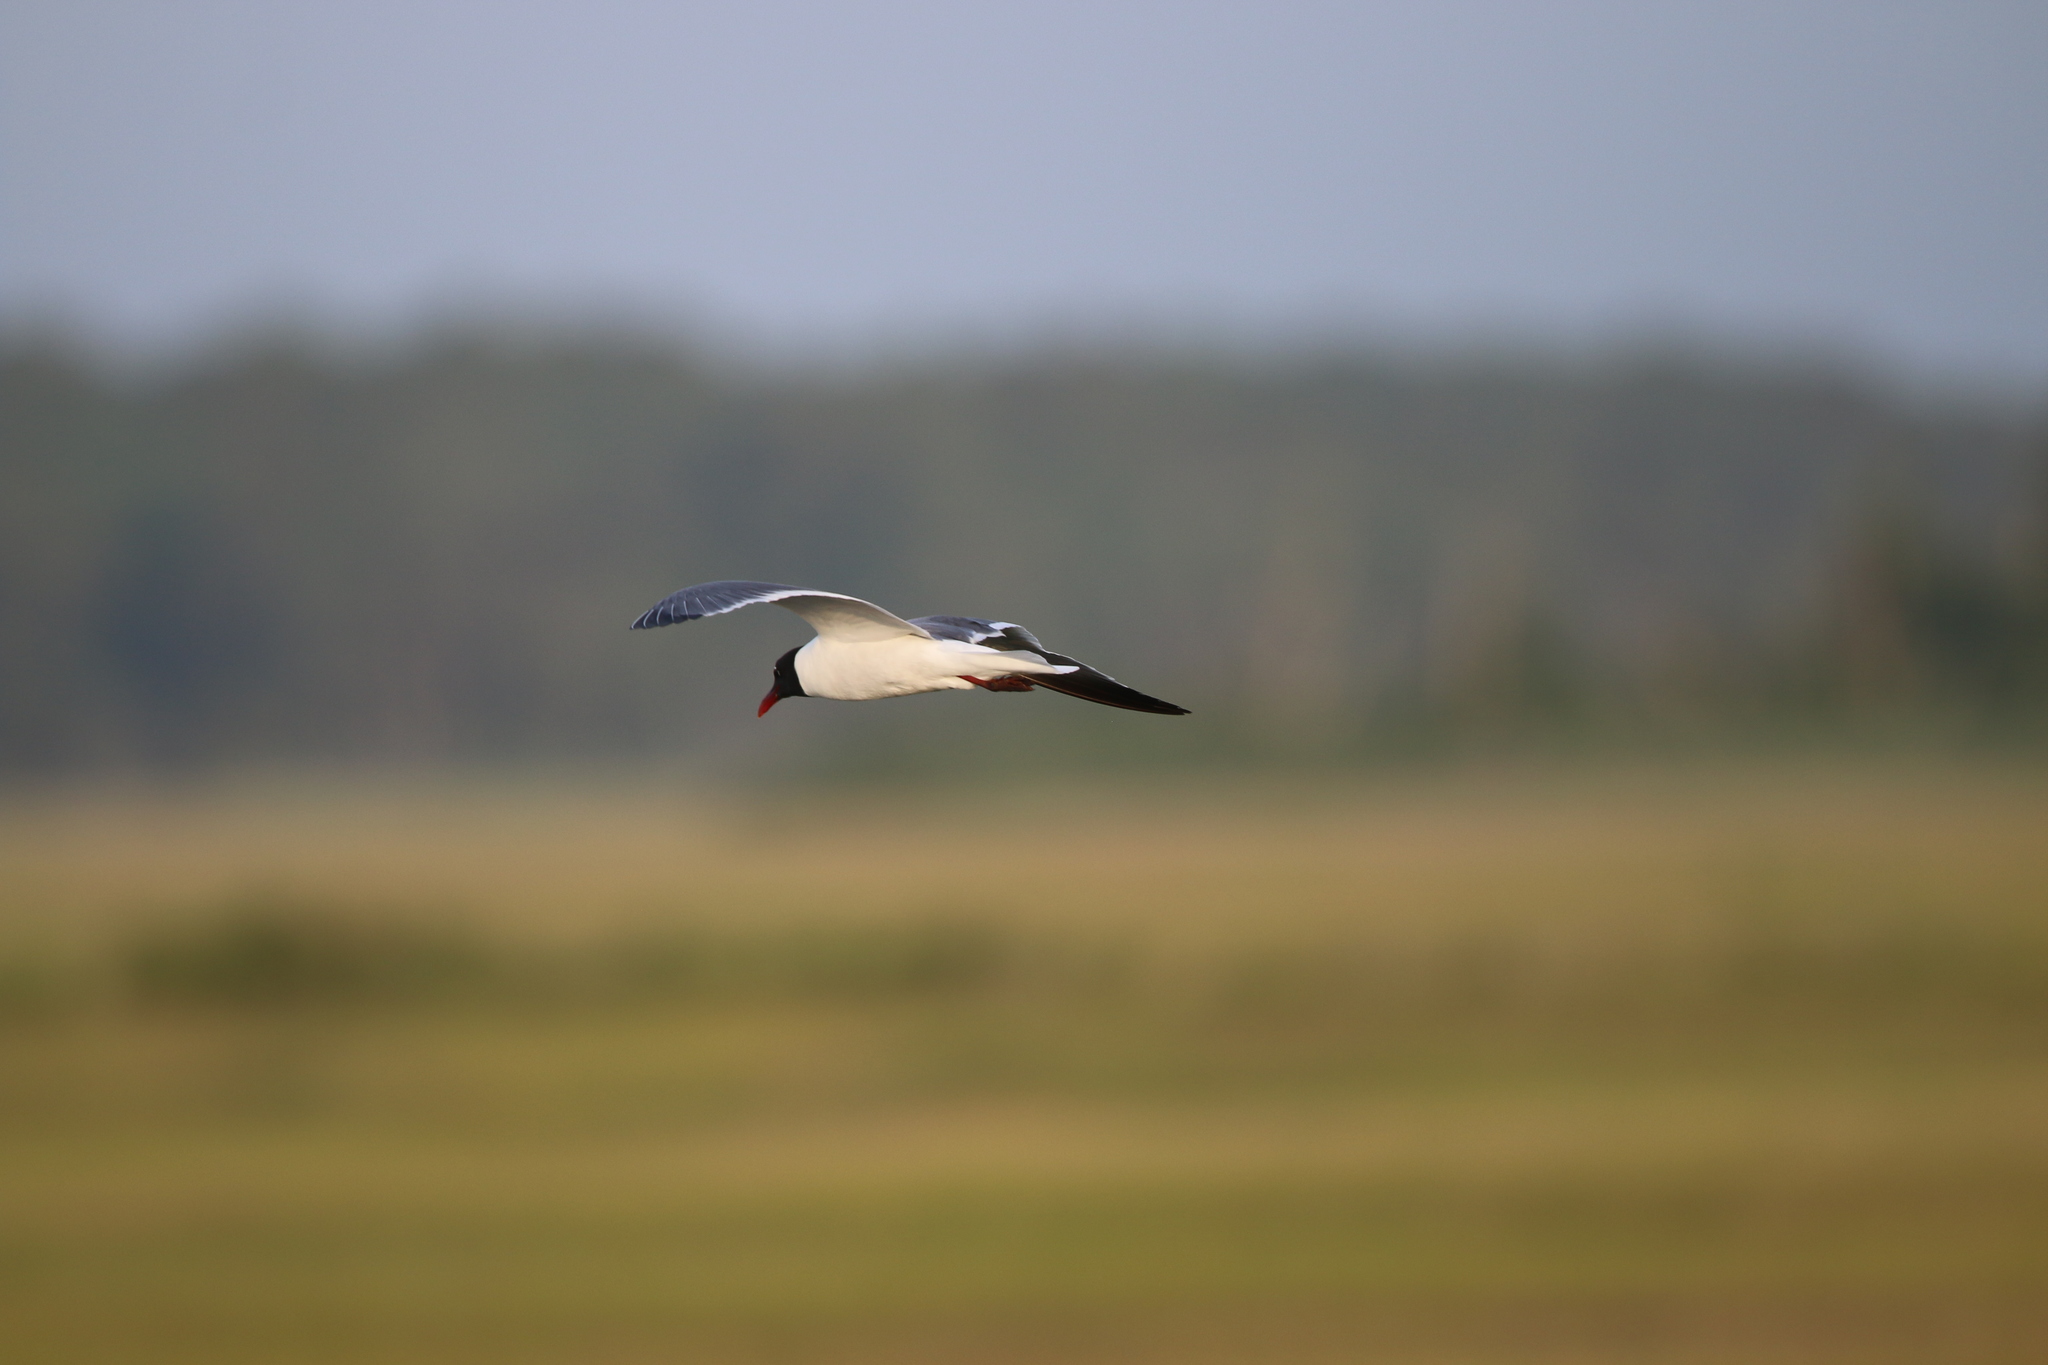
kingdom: Animalia
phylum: Chordata
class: Aves
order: Charadriiformes
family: Laridae
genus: Leucophaeus
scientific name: Leucophaeus atricilla
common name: Laughing gull
